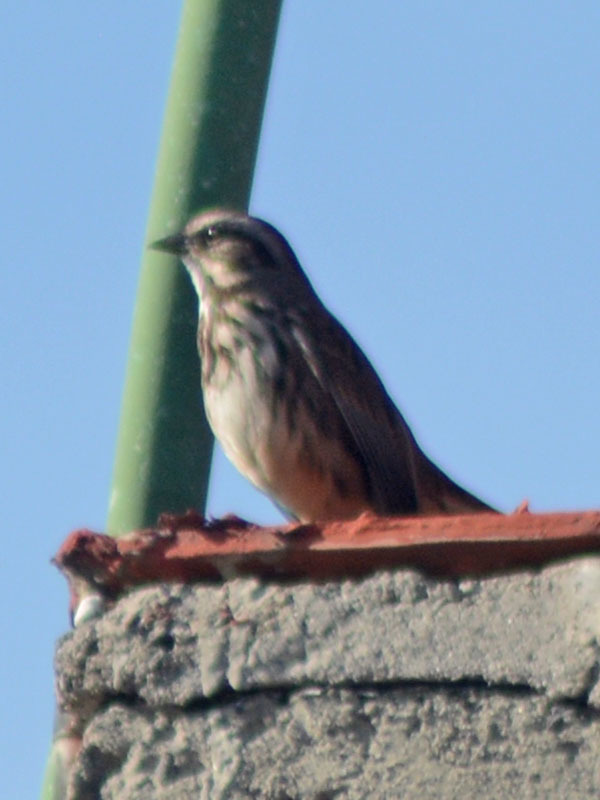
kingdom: Animalia
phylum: Chordata
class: Aves
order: Passeriformes
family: Passerellidae
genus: Melospiza
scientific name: Melospiza melodia
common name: Song sparrow
